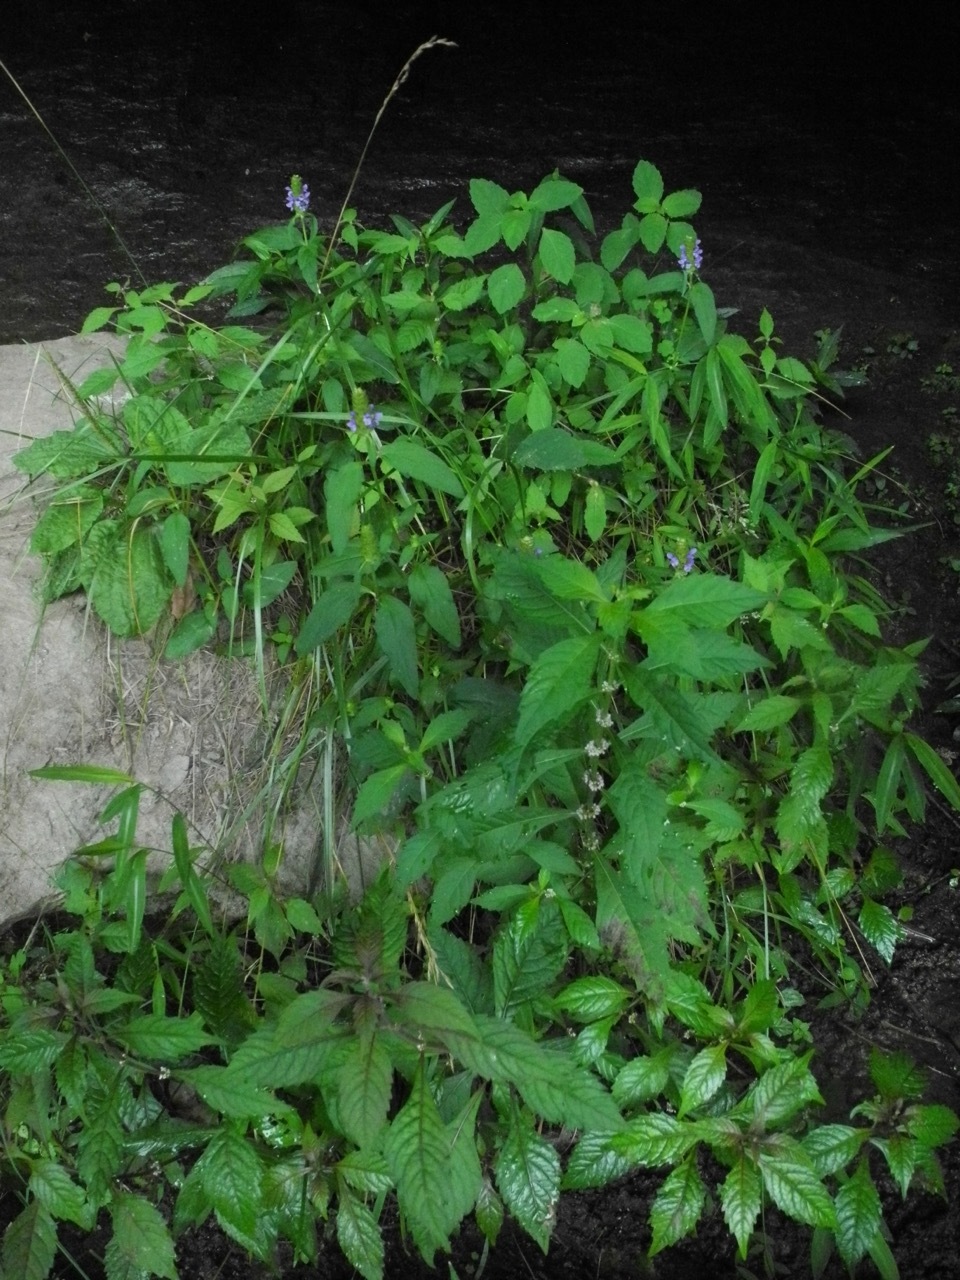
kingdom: Plantae
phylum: Tracheophyta
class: Magnoliopsida
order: Lamiales
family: Lamiaceae
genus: Prunella
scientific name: Prunella vulgaris
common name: Heal-all
